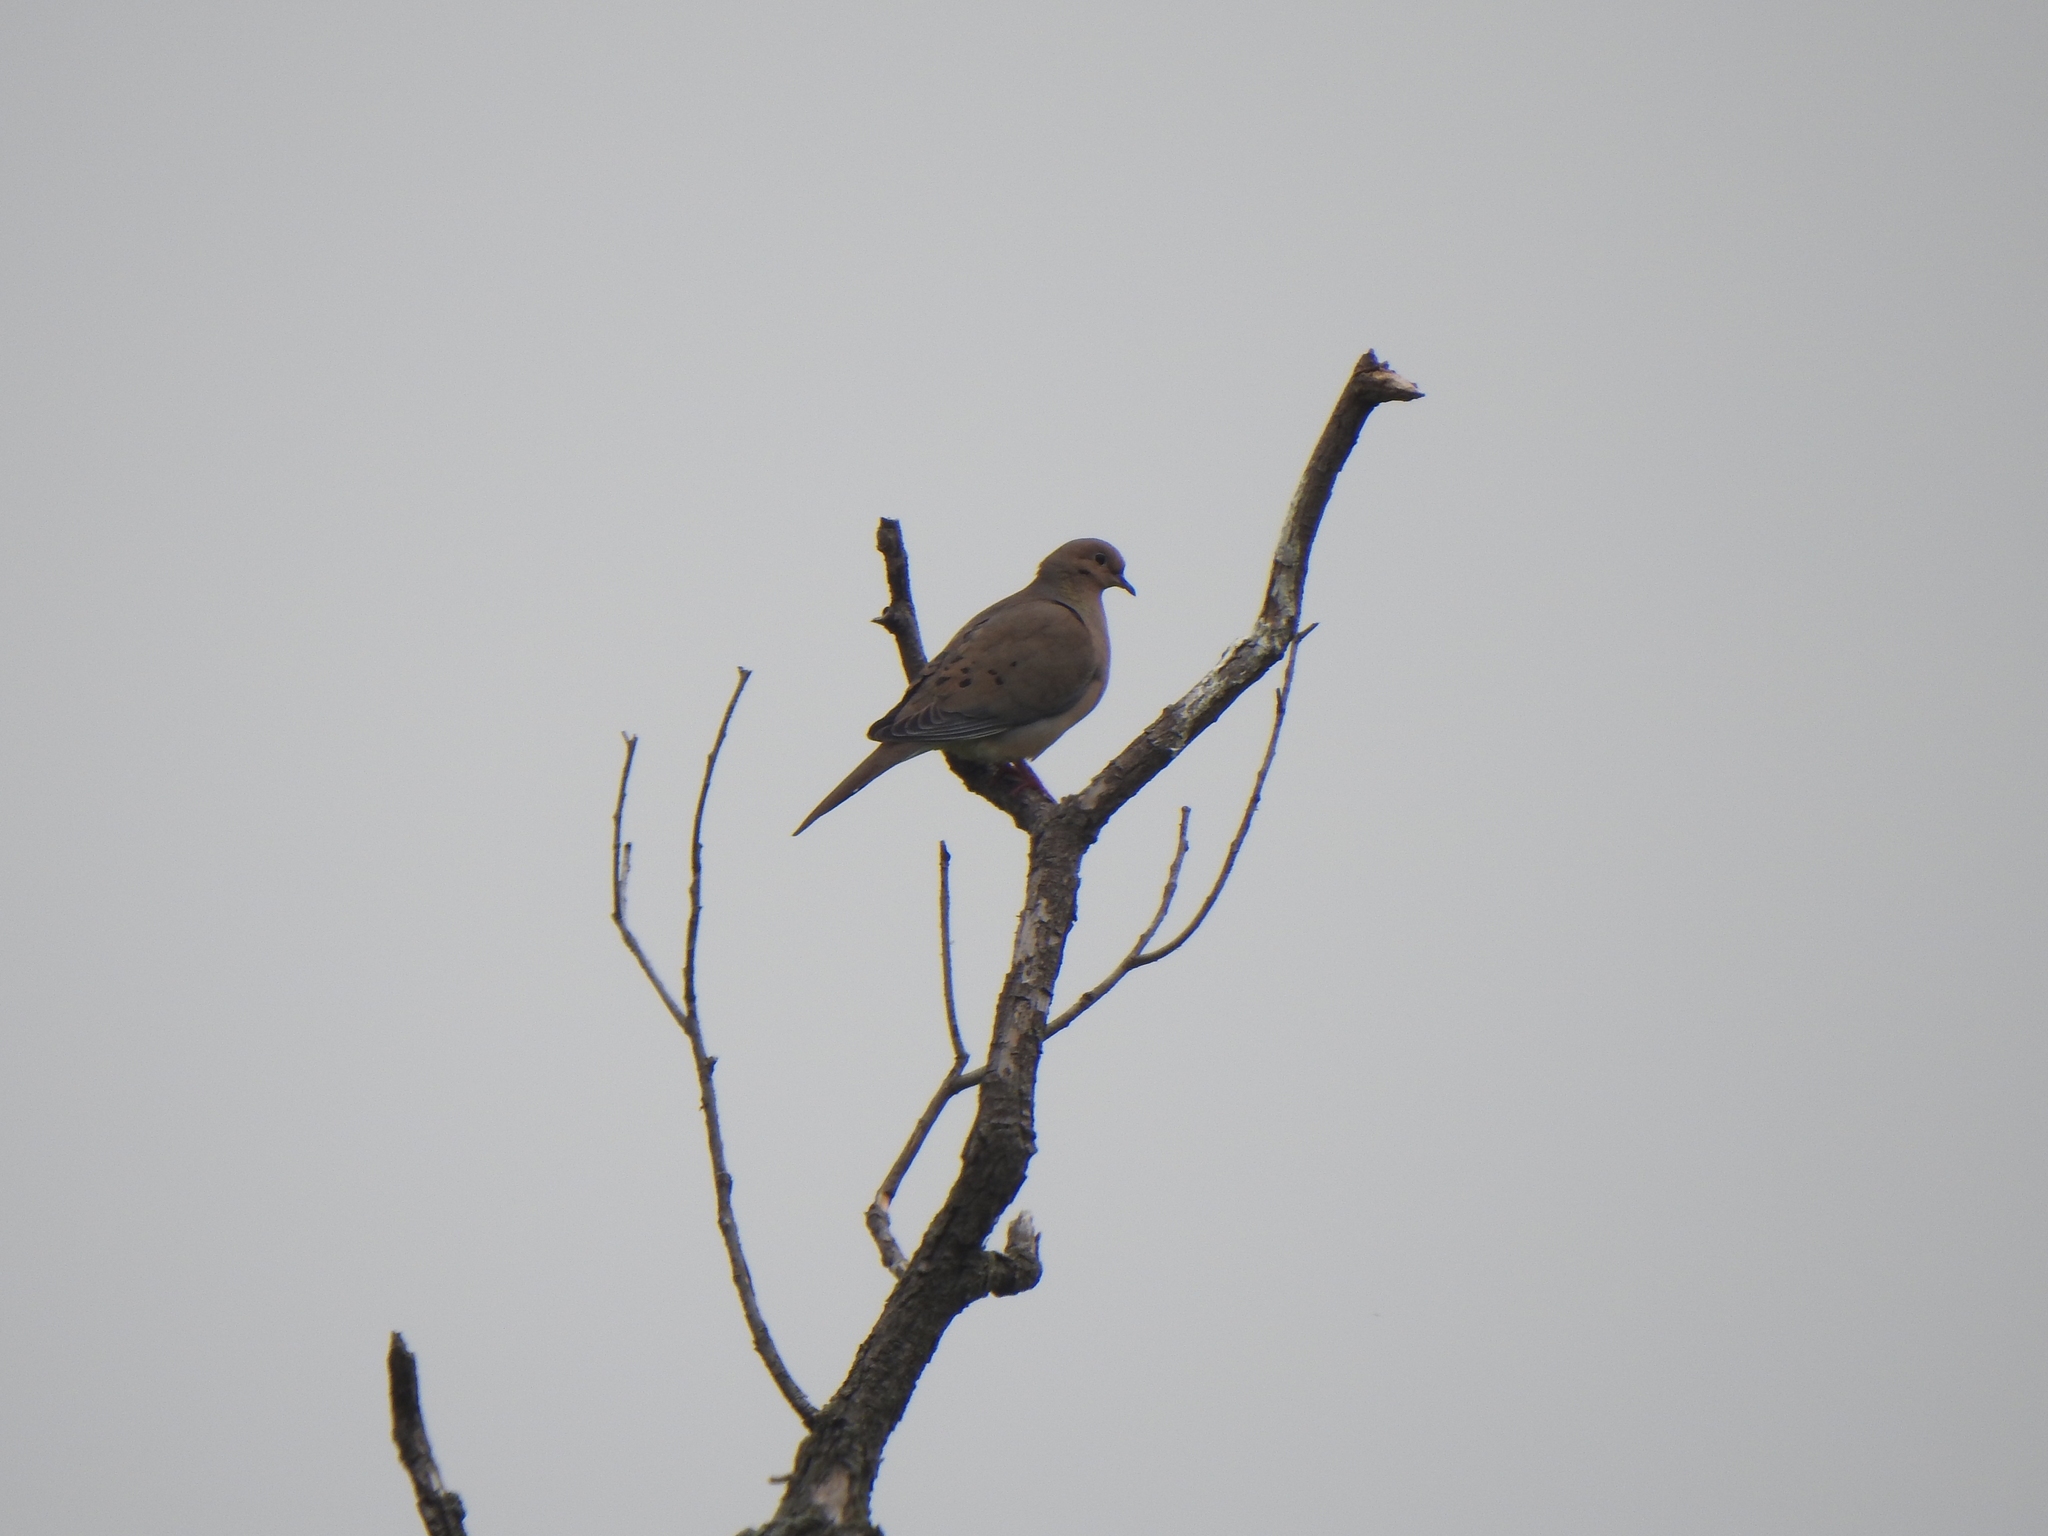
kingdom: Animalia
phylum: Chordata
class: Aves
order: Columbiformes
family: Columbidae
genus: Zenaida
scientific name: Zenaida macroura
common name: Mourning dove
